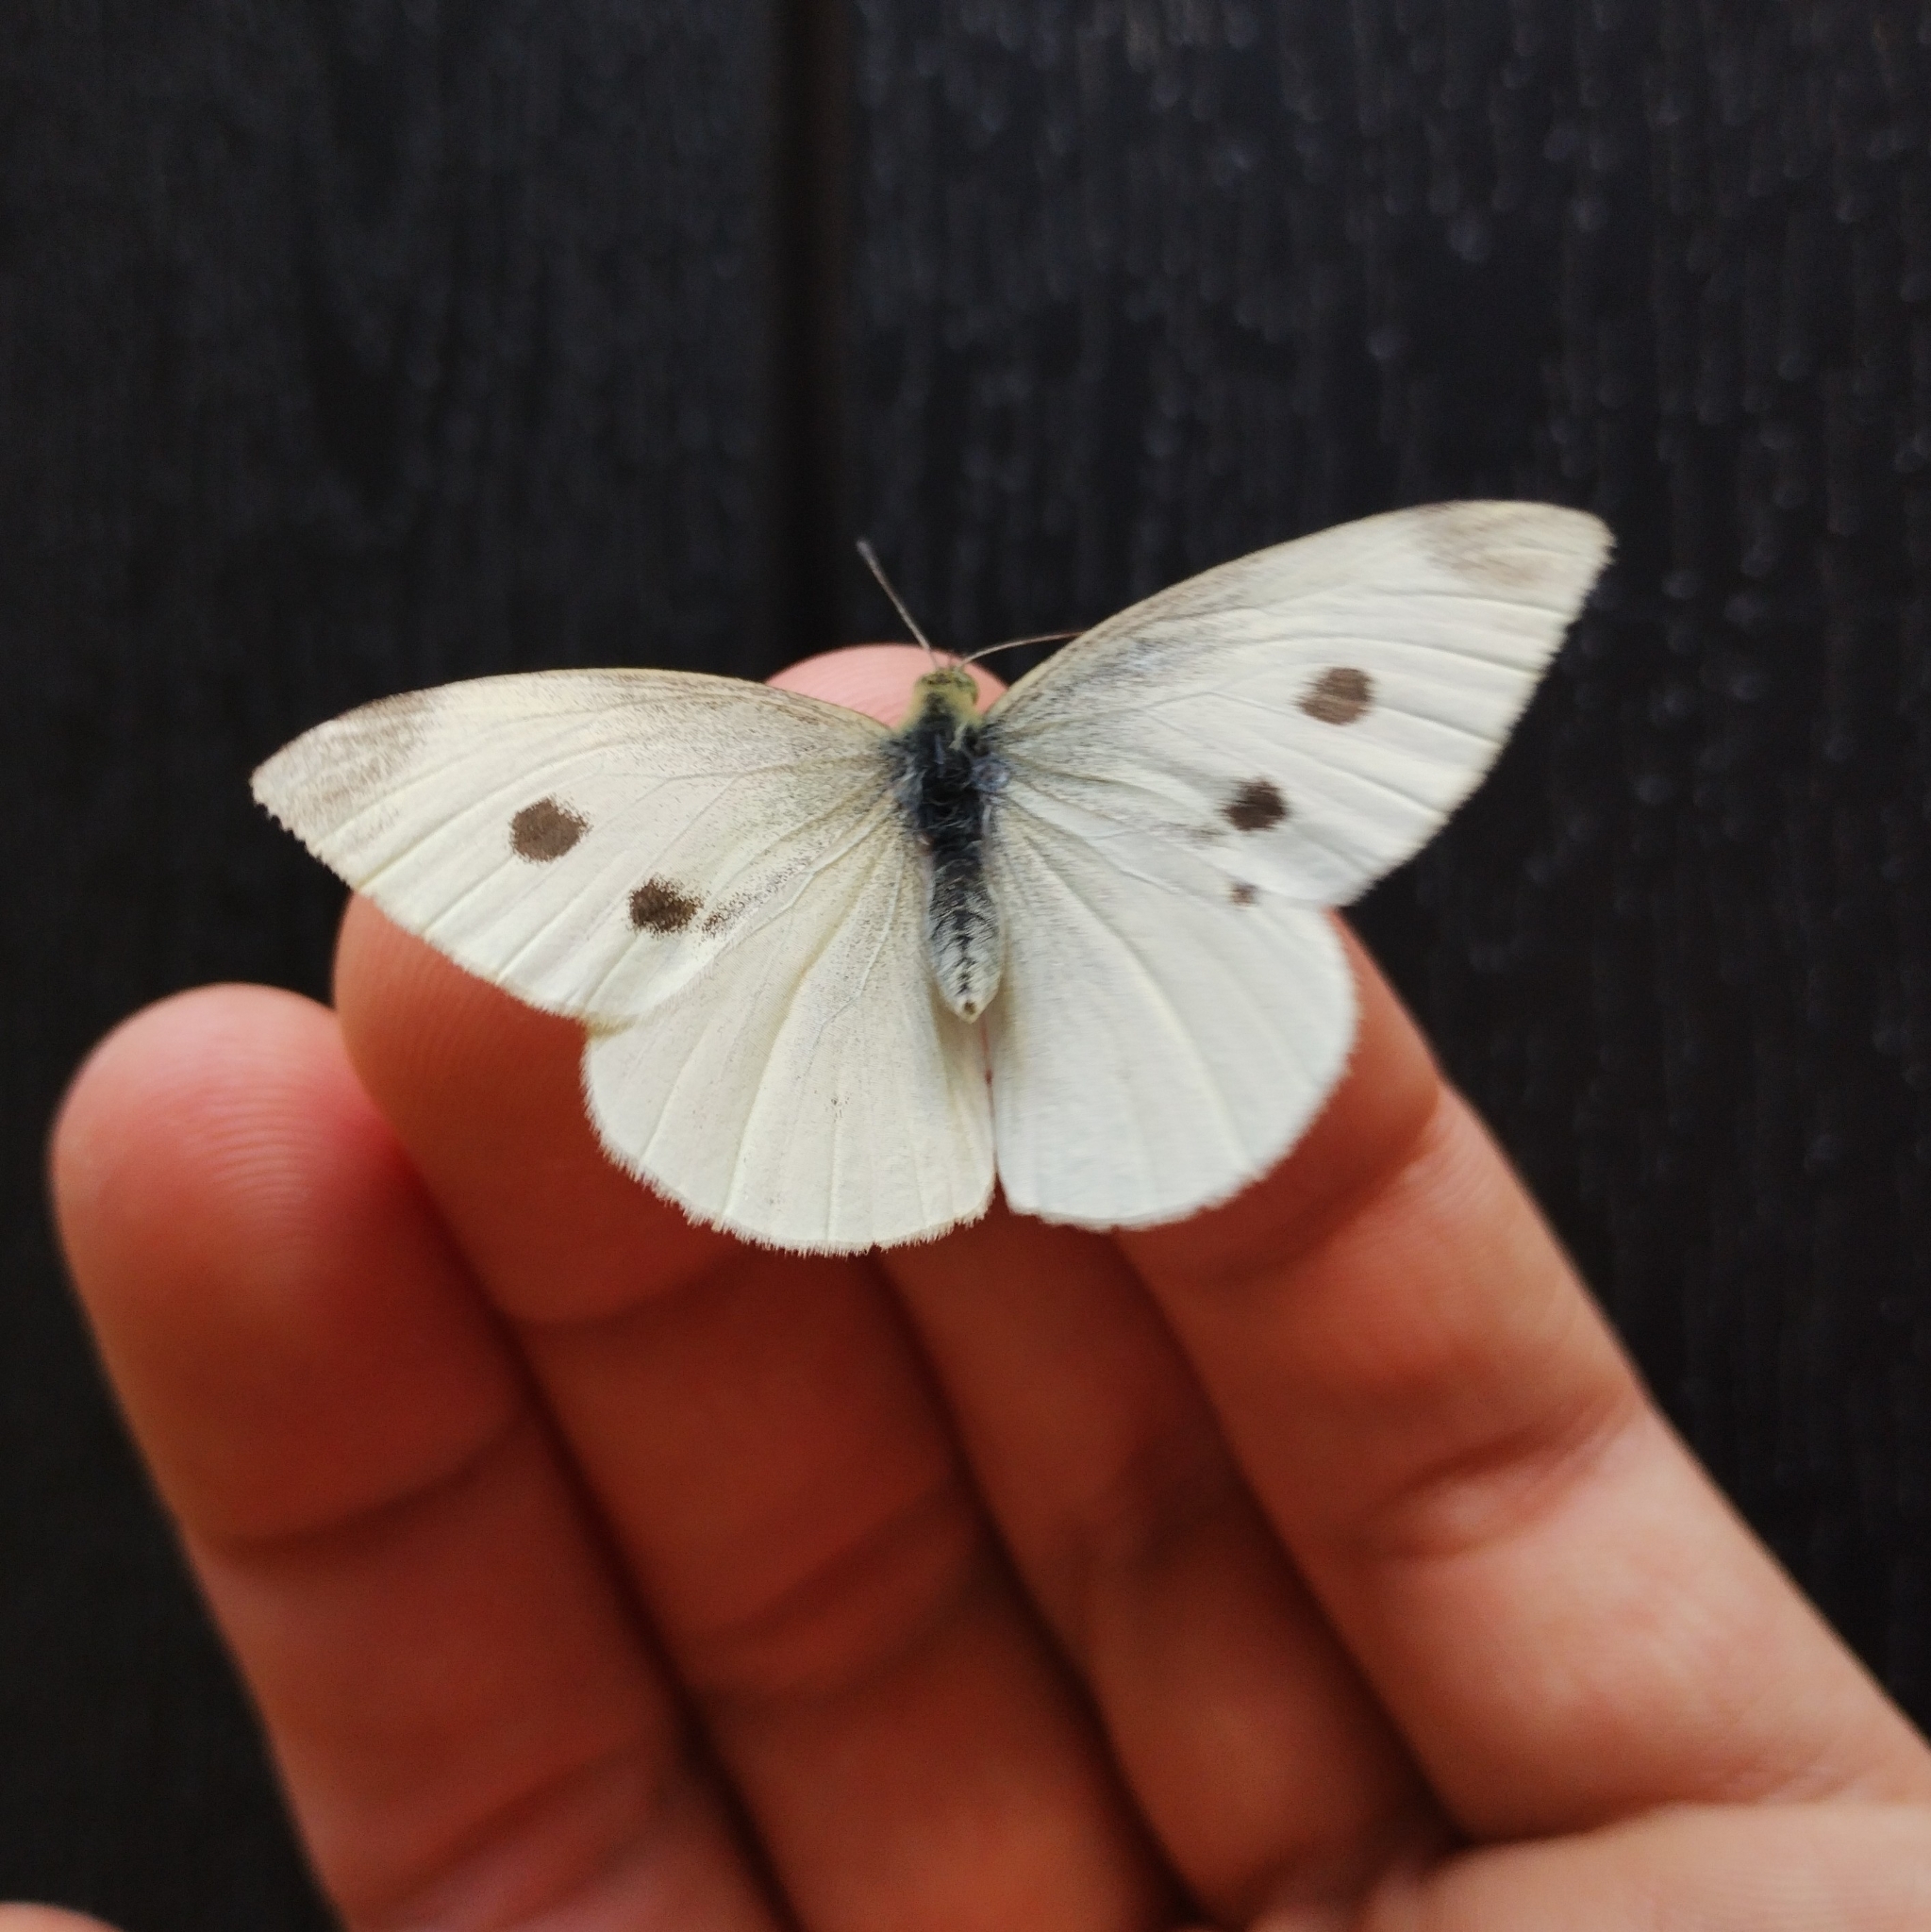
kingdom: Animalia
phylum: Arthropoda
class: Insecta
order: Lepidoptera
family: Pieridae
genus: Pieris
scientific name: Pieris rapae
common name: Small white
